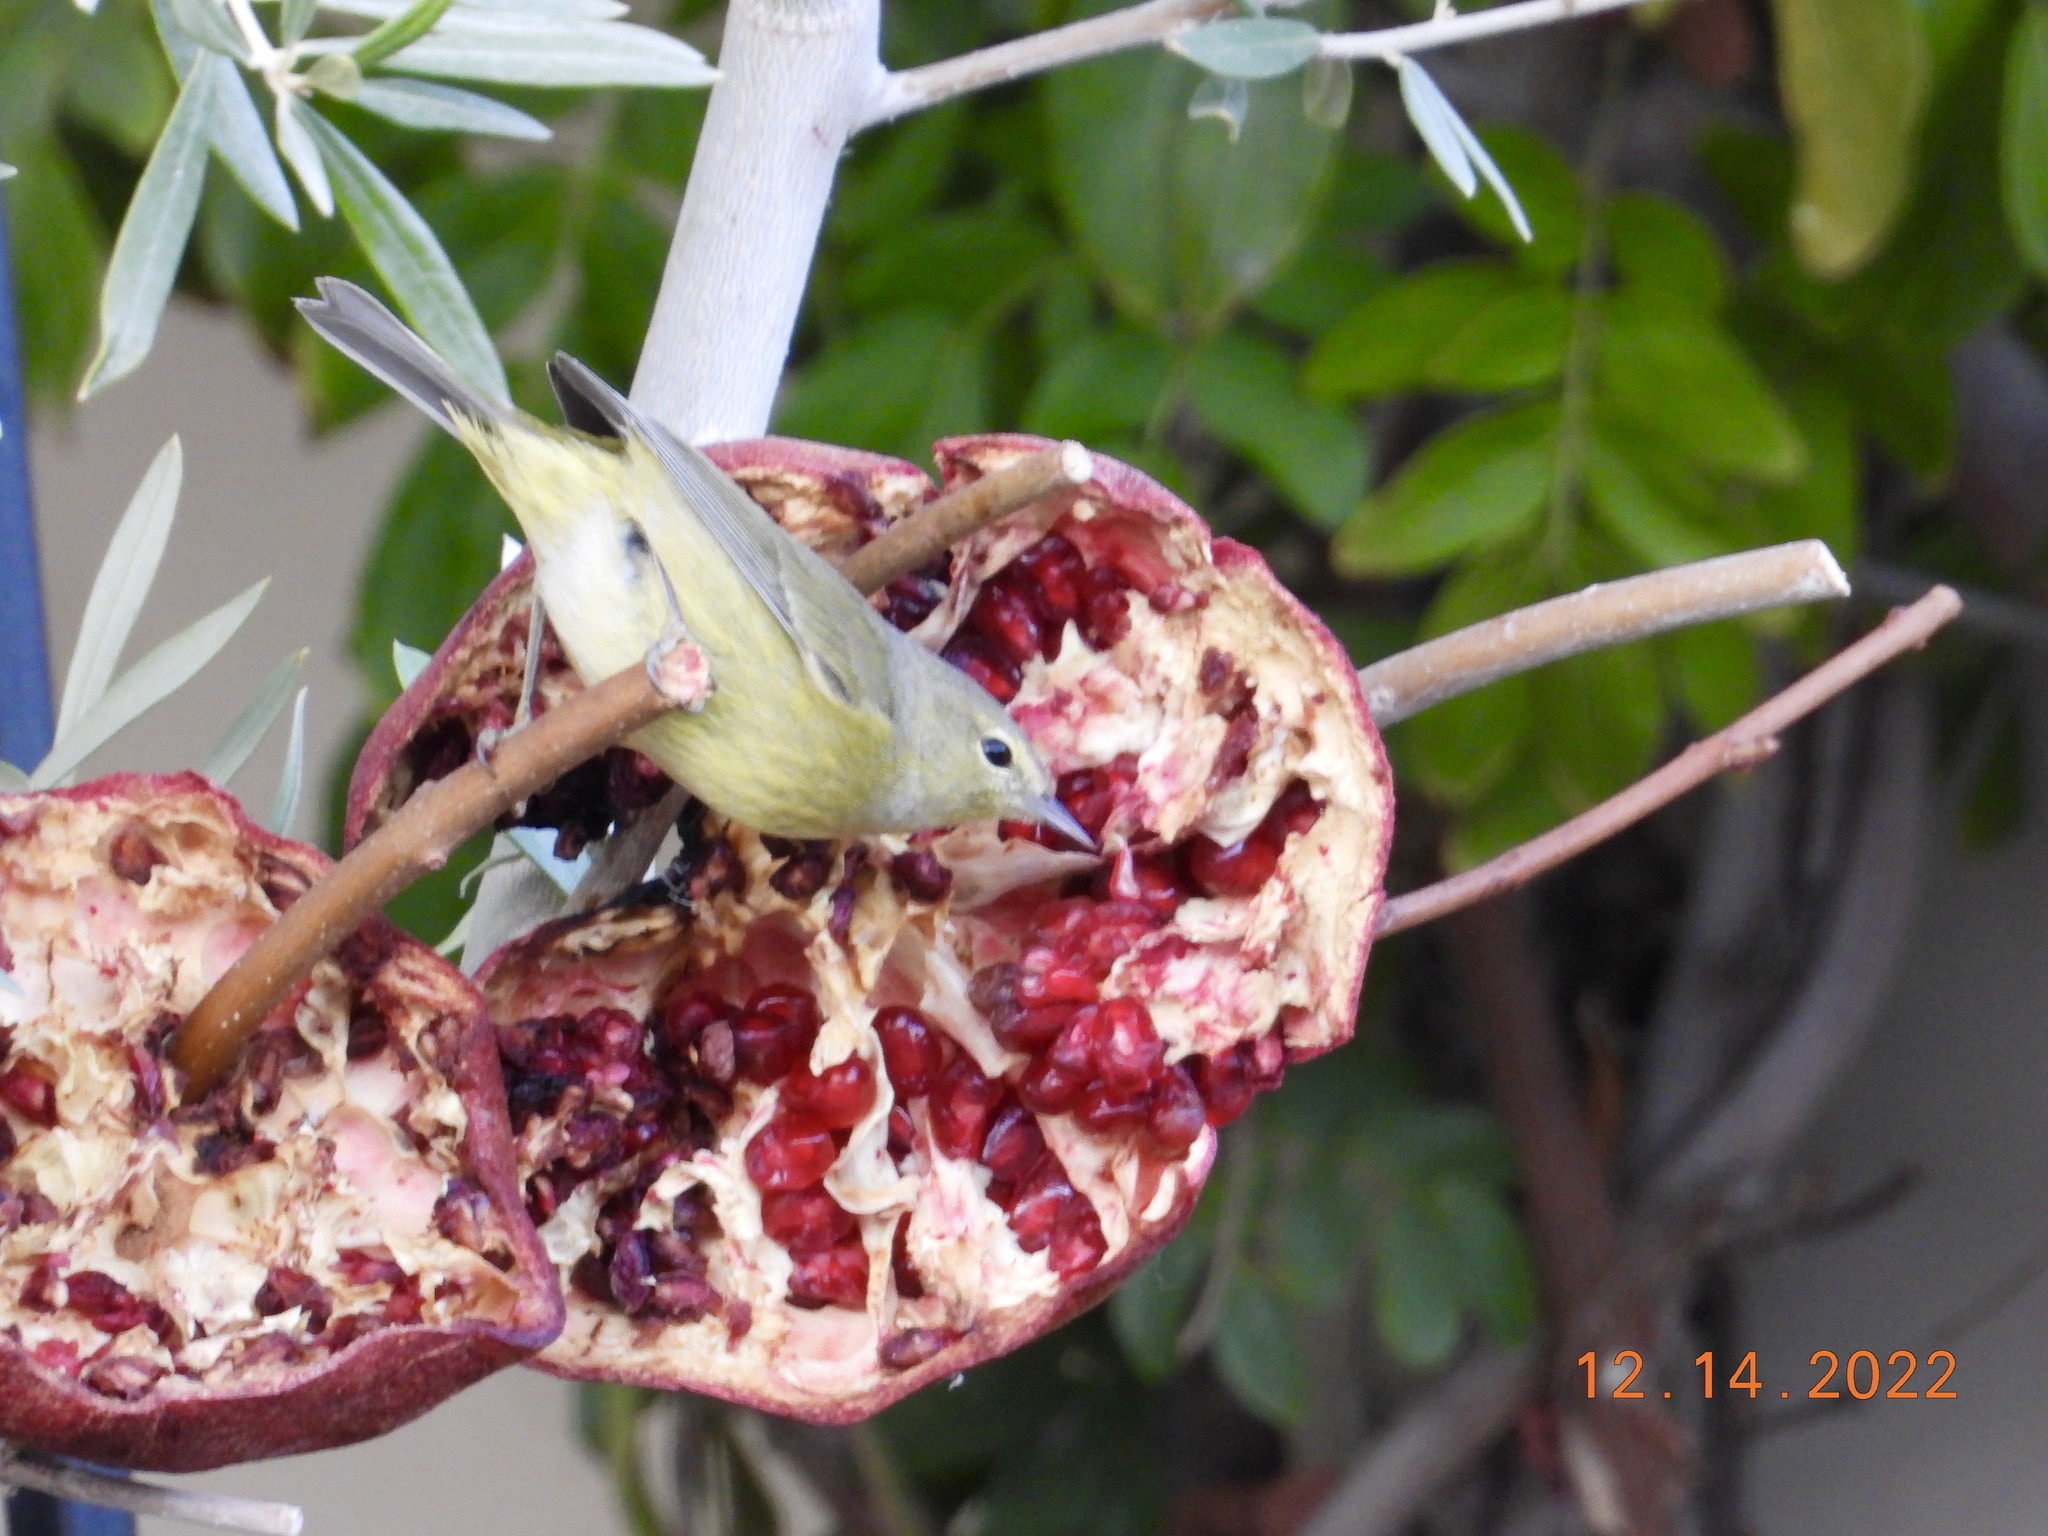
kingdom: Animalia
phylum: Chordata
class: Aves
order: Passeriformes
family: Parulidae
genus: Leiothlypis
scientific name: Leiothlypis celata
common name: Orange-crowned warbler
